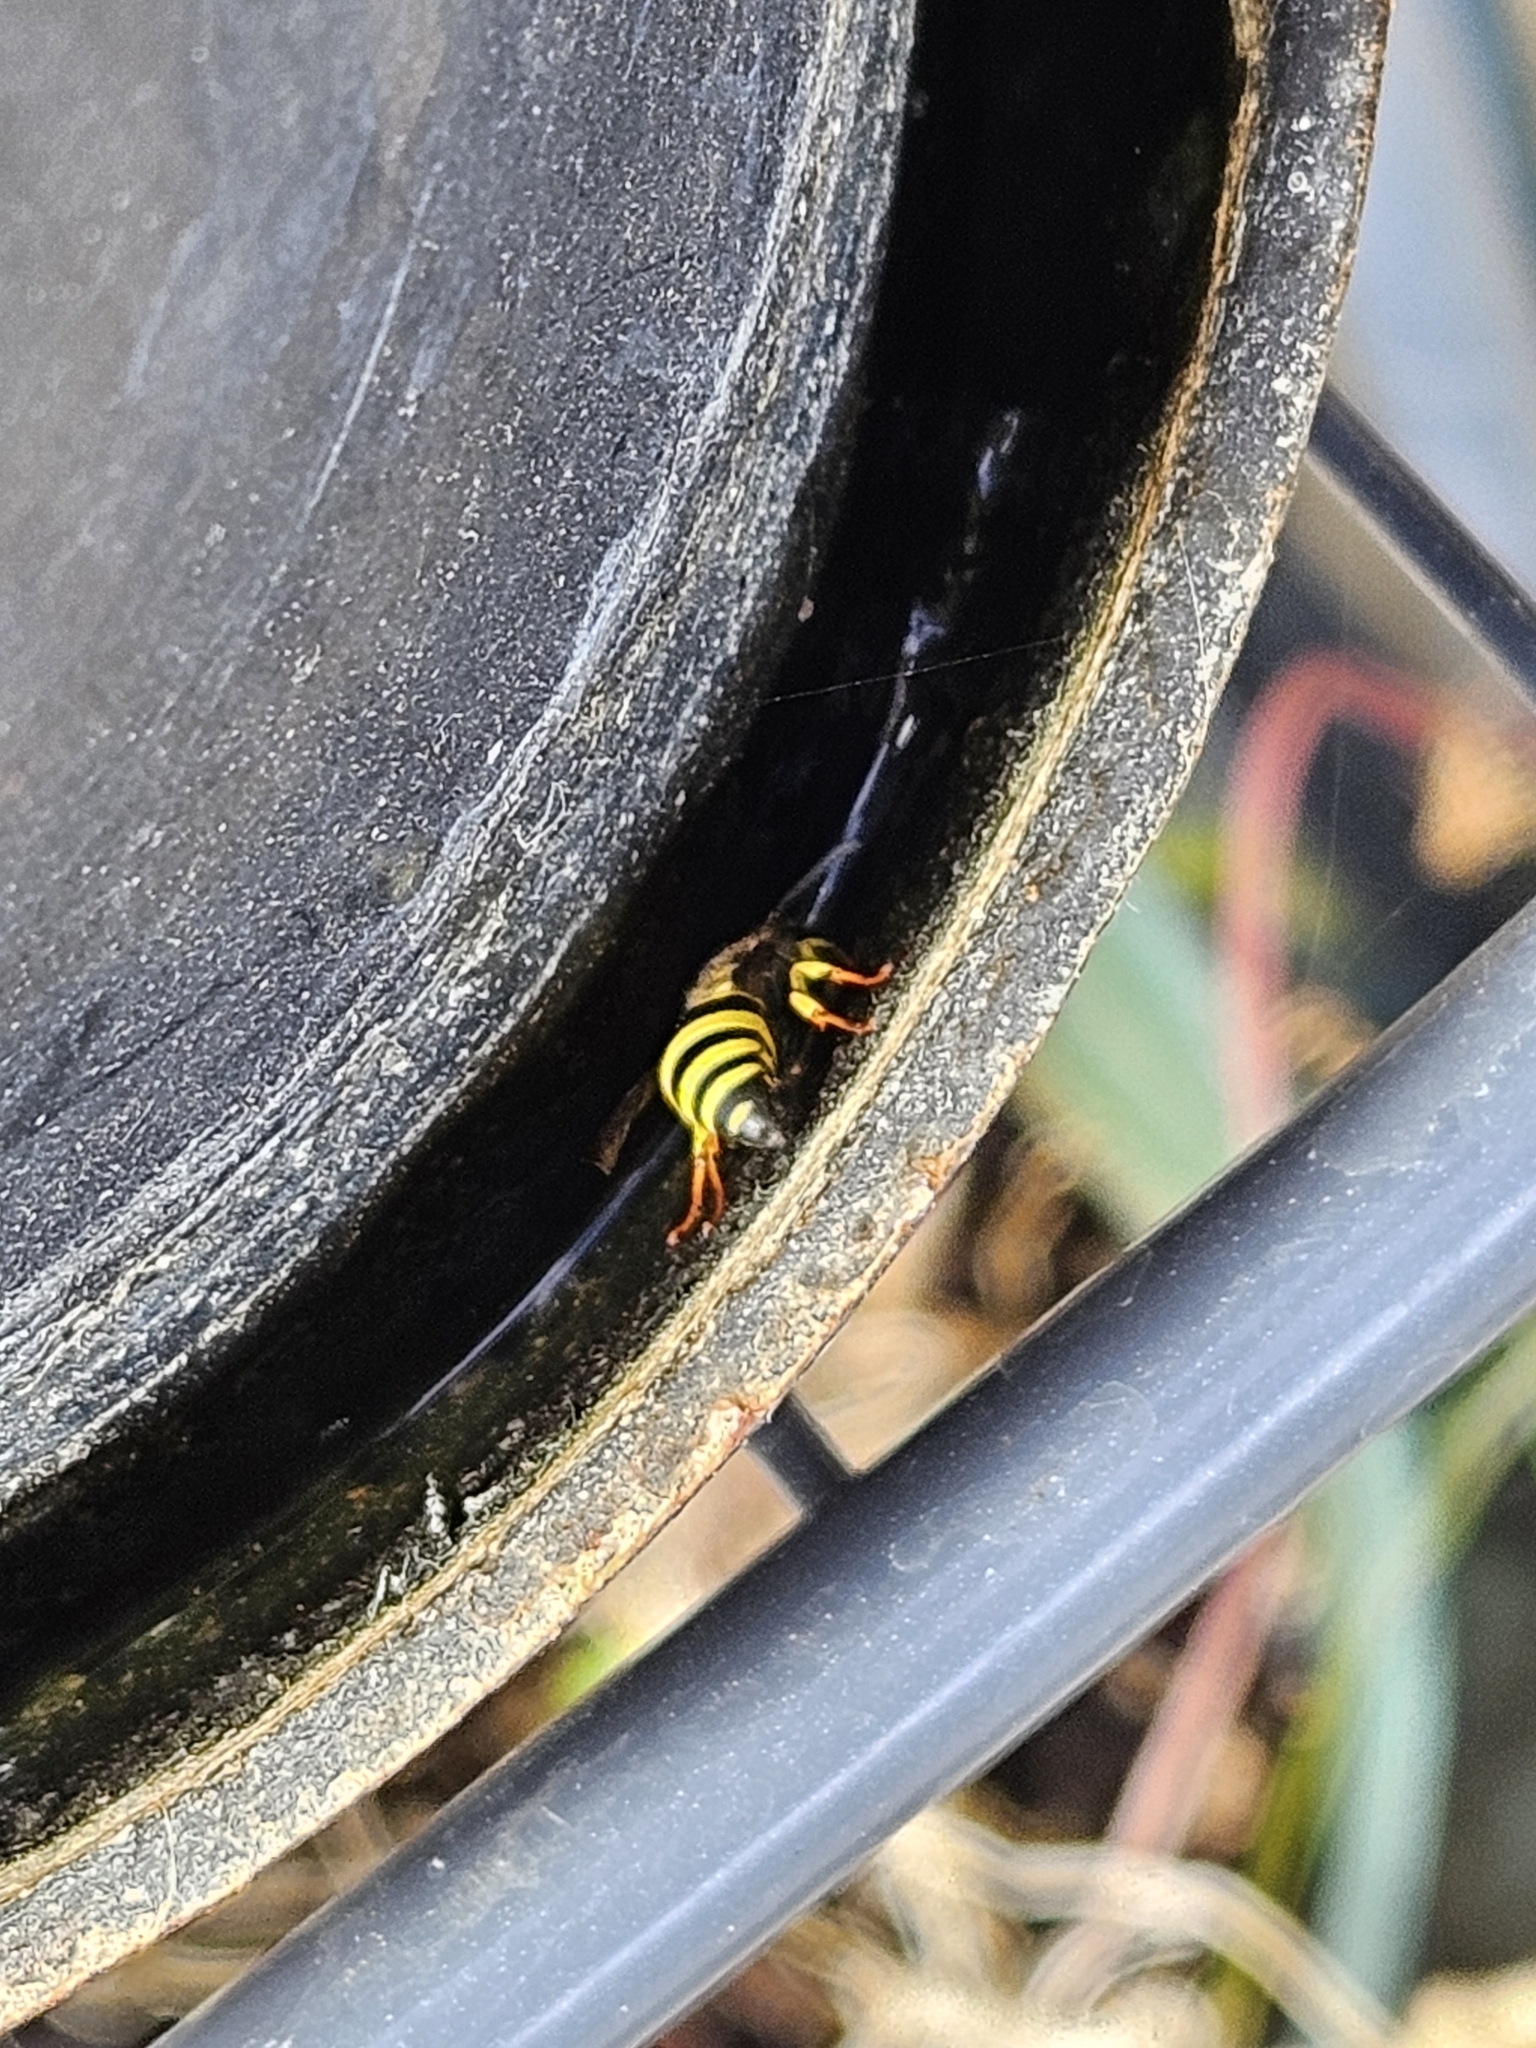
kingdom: Animalia
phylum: Arthropoda
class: Insecta
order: Hymenoptera
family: Vespidae
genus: Ancistrocerus
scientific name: Ancistrocerus gazella
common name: European tube wasp
